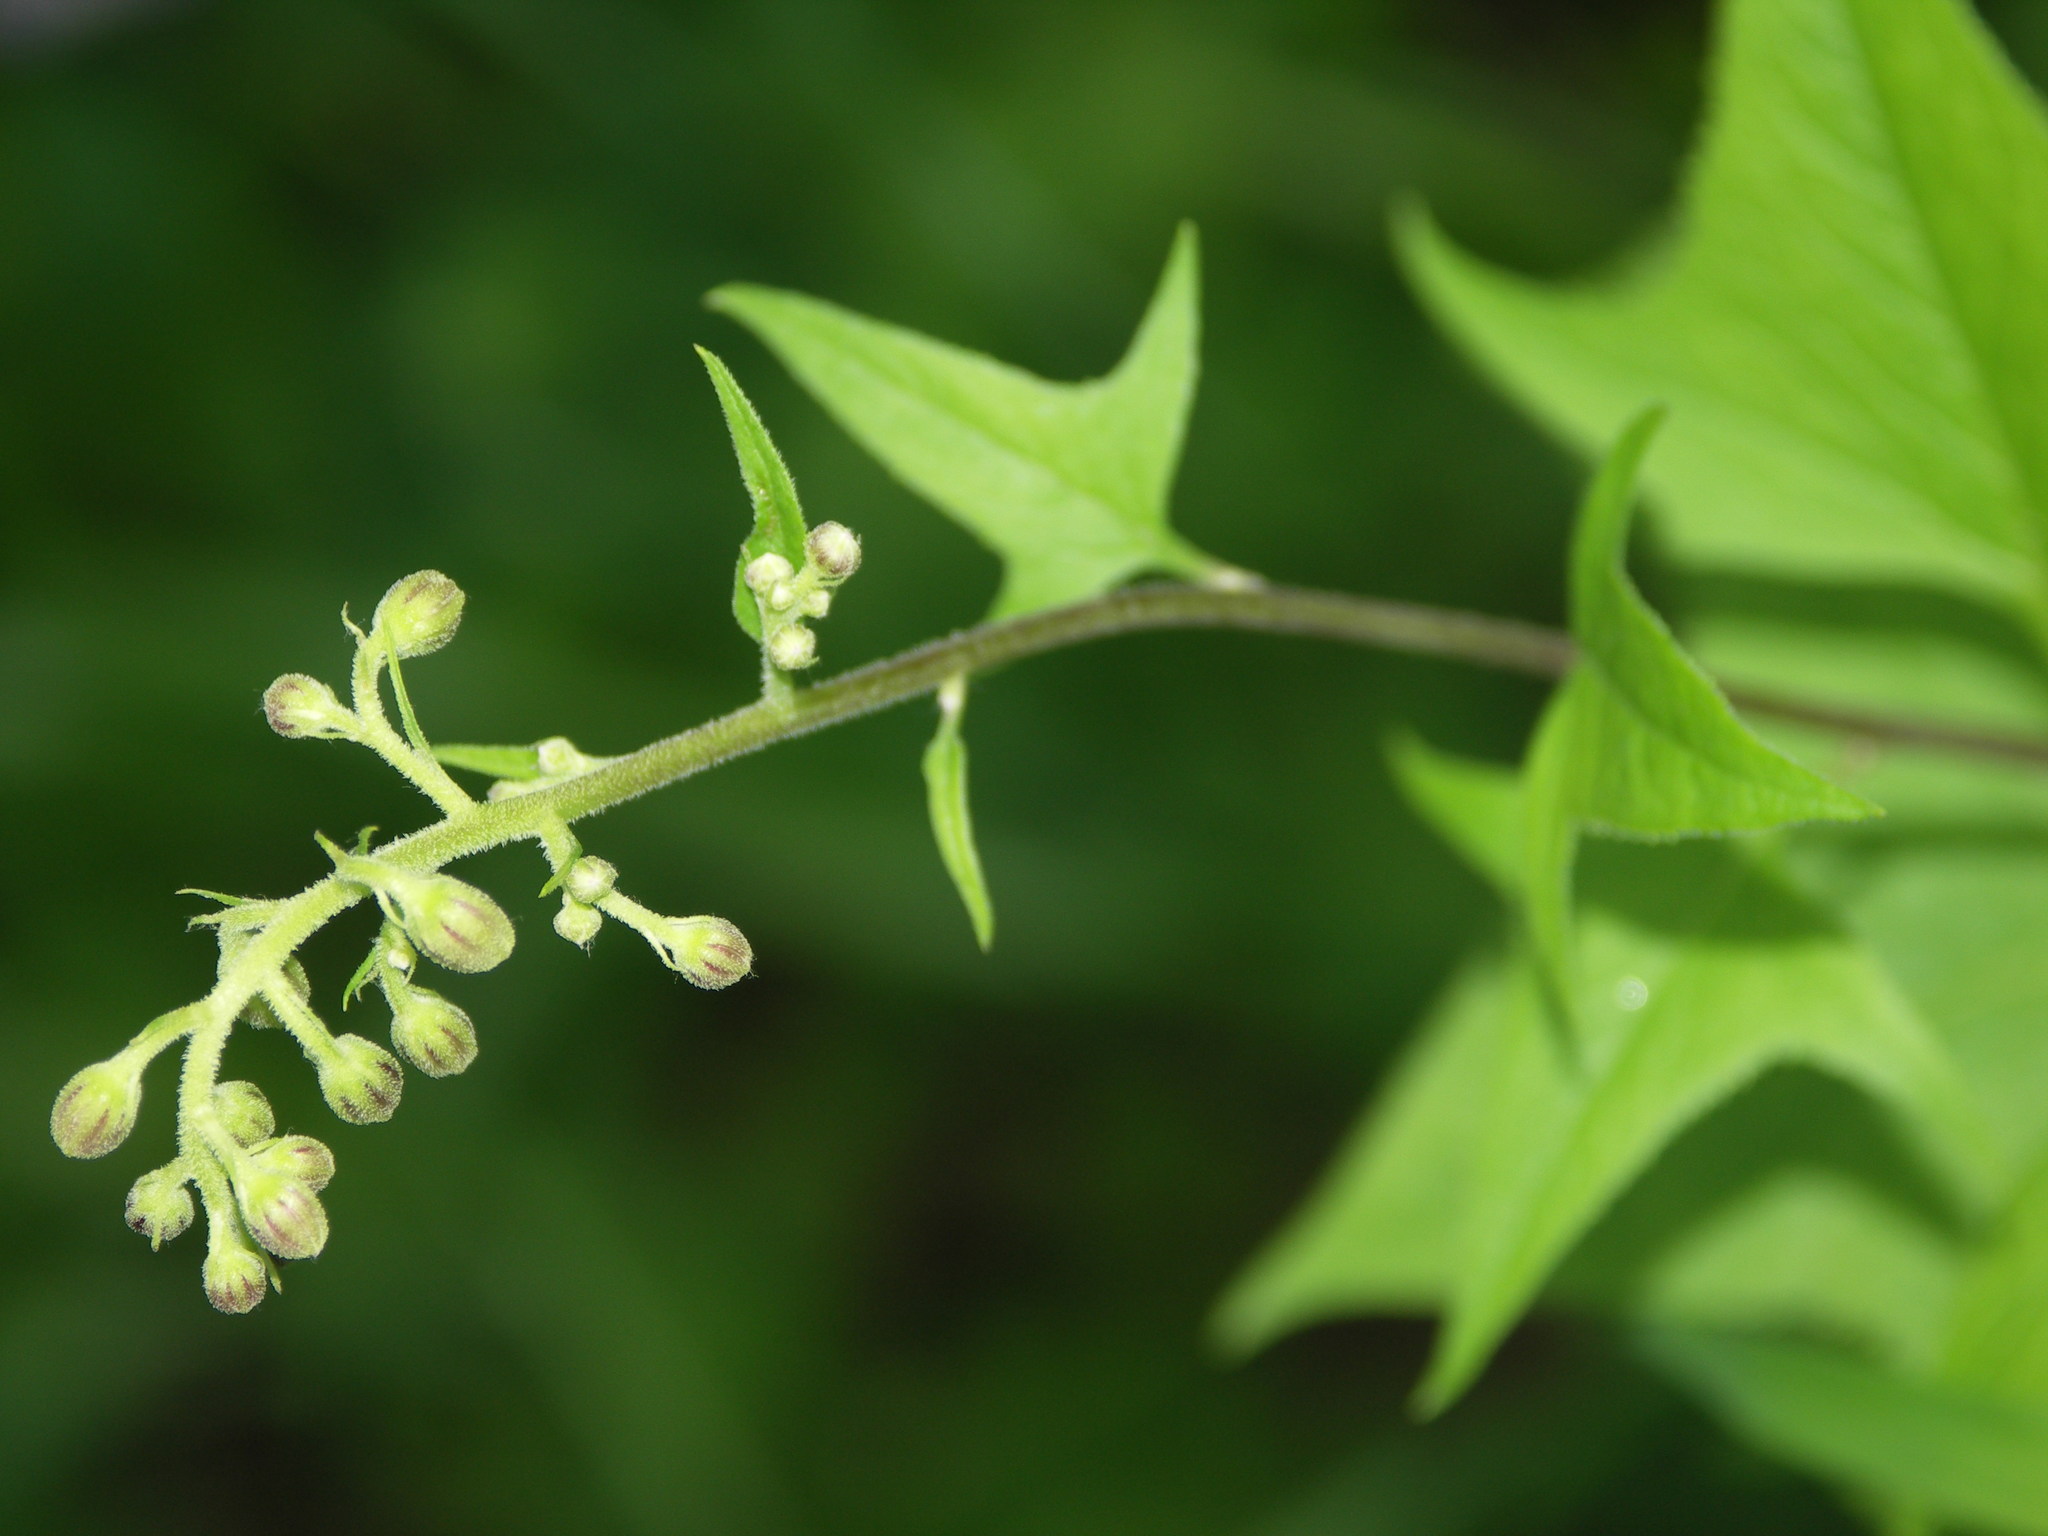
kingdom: Plantae
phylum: Tracheophyta
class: Magnoliopsida
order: Asterales
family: Asteraceae
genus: Parasenecio
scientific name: Parasenecio hastatus
